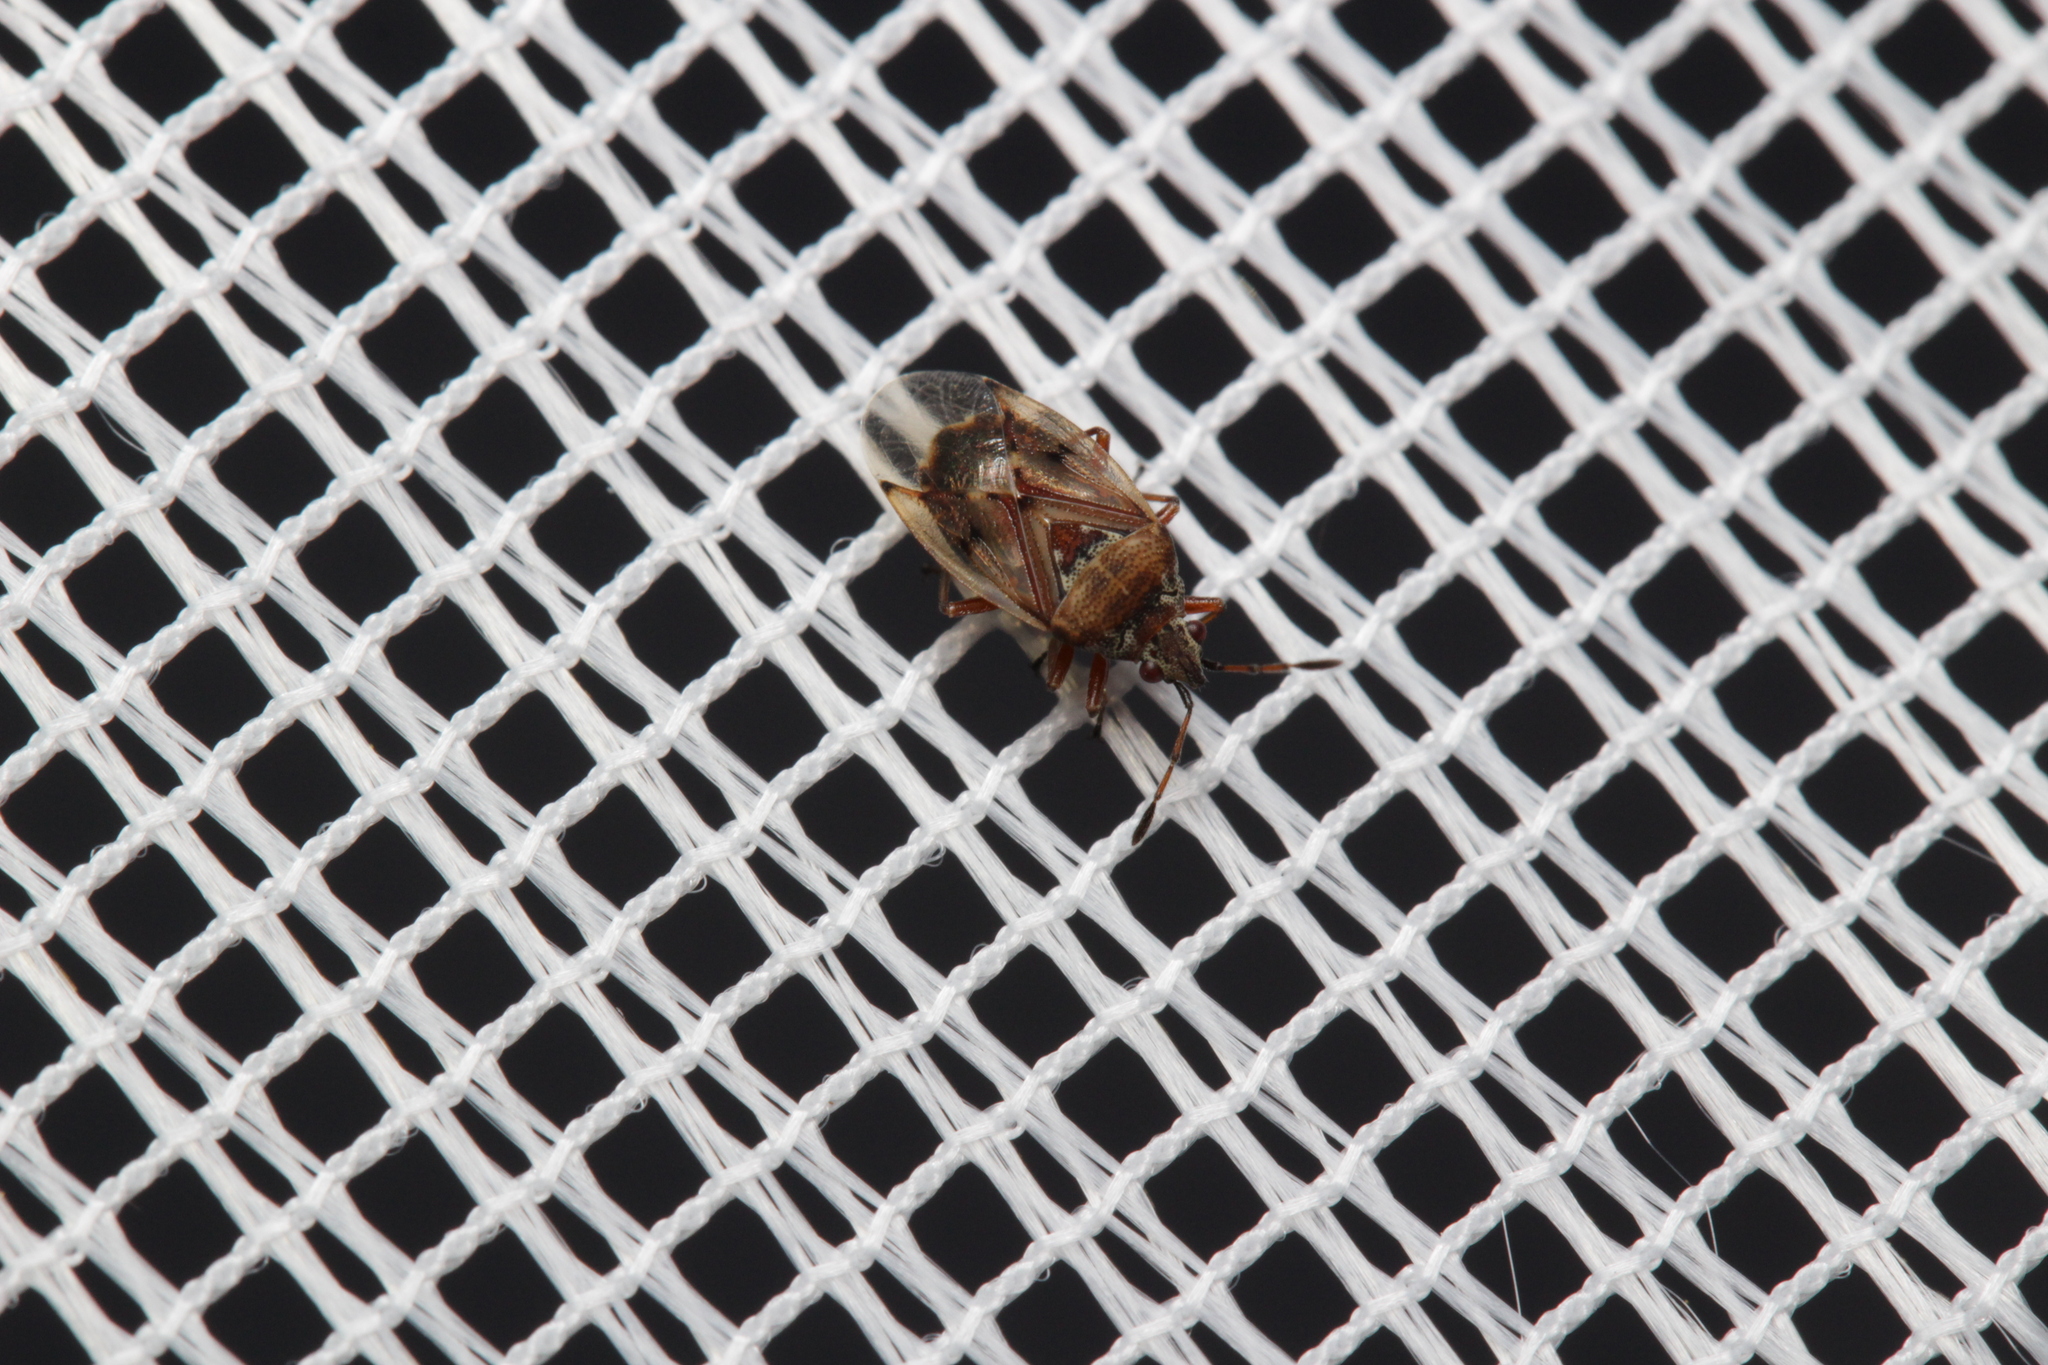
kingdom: Animalia
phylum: Arthropoda
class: Insecta
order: Hemiptera
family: Lygaeidae
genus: Kleidocerys
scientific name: Kleidocerys resedae
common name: Birch catkin bug
